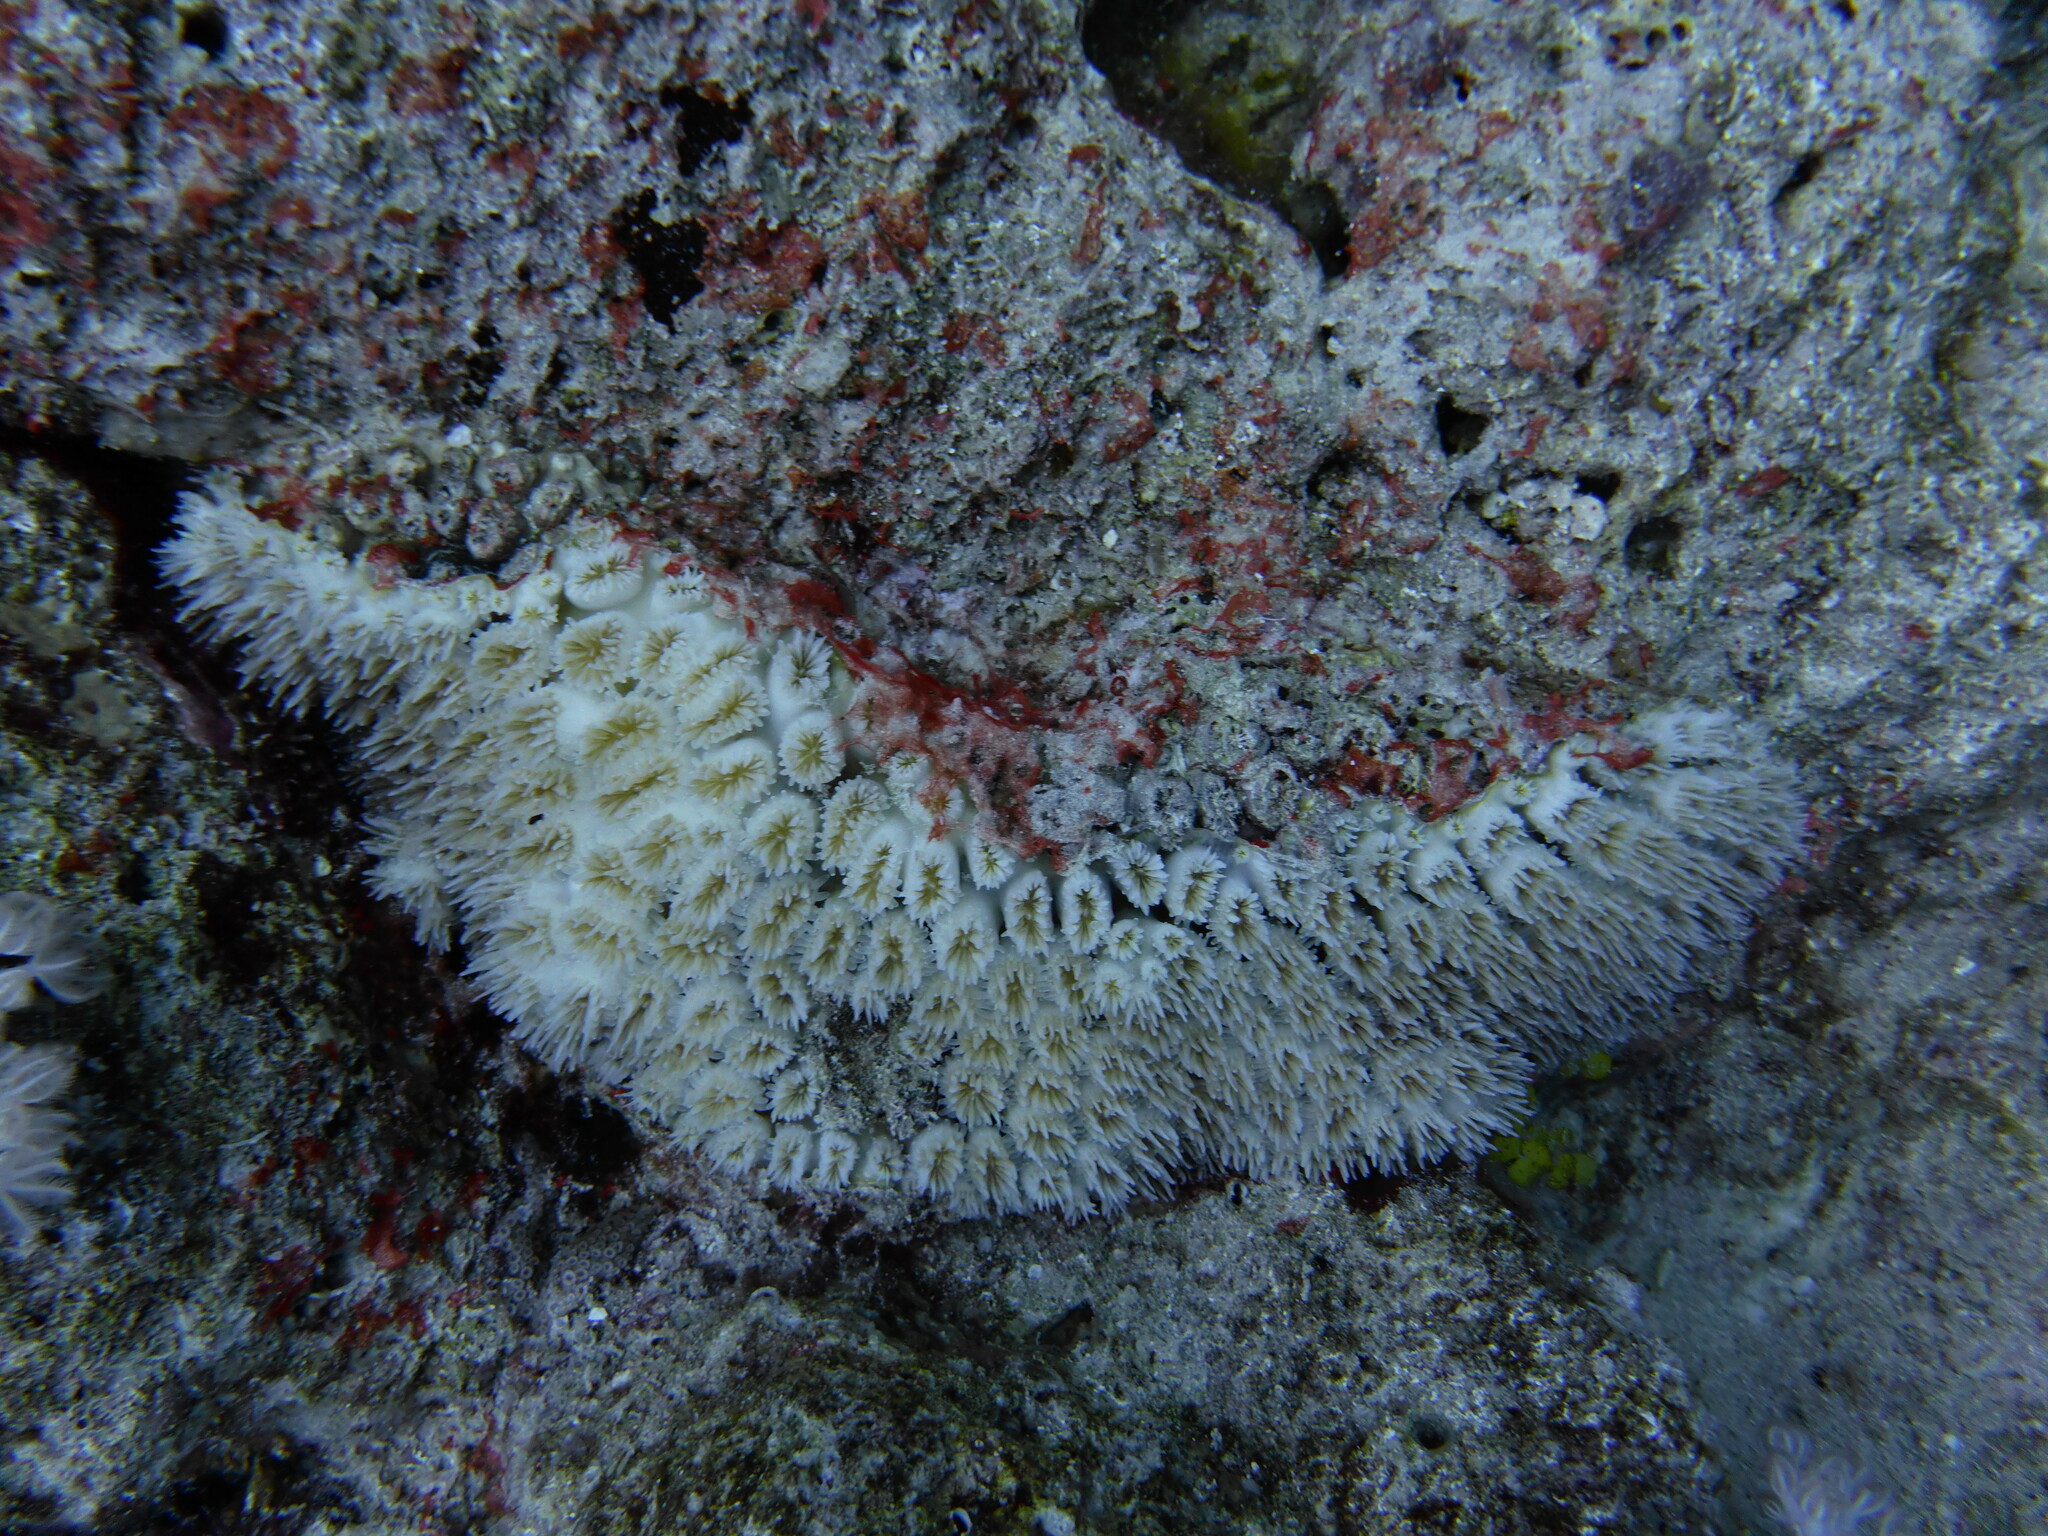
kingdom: Animalia
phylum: Cnidaria
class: Anthozoa
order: Scleractinia
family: Euphylliidae
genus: Galaxea
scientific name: Galaxea fascicularis
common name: Octopus coral
